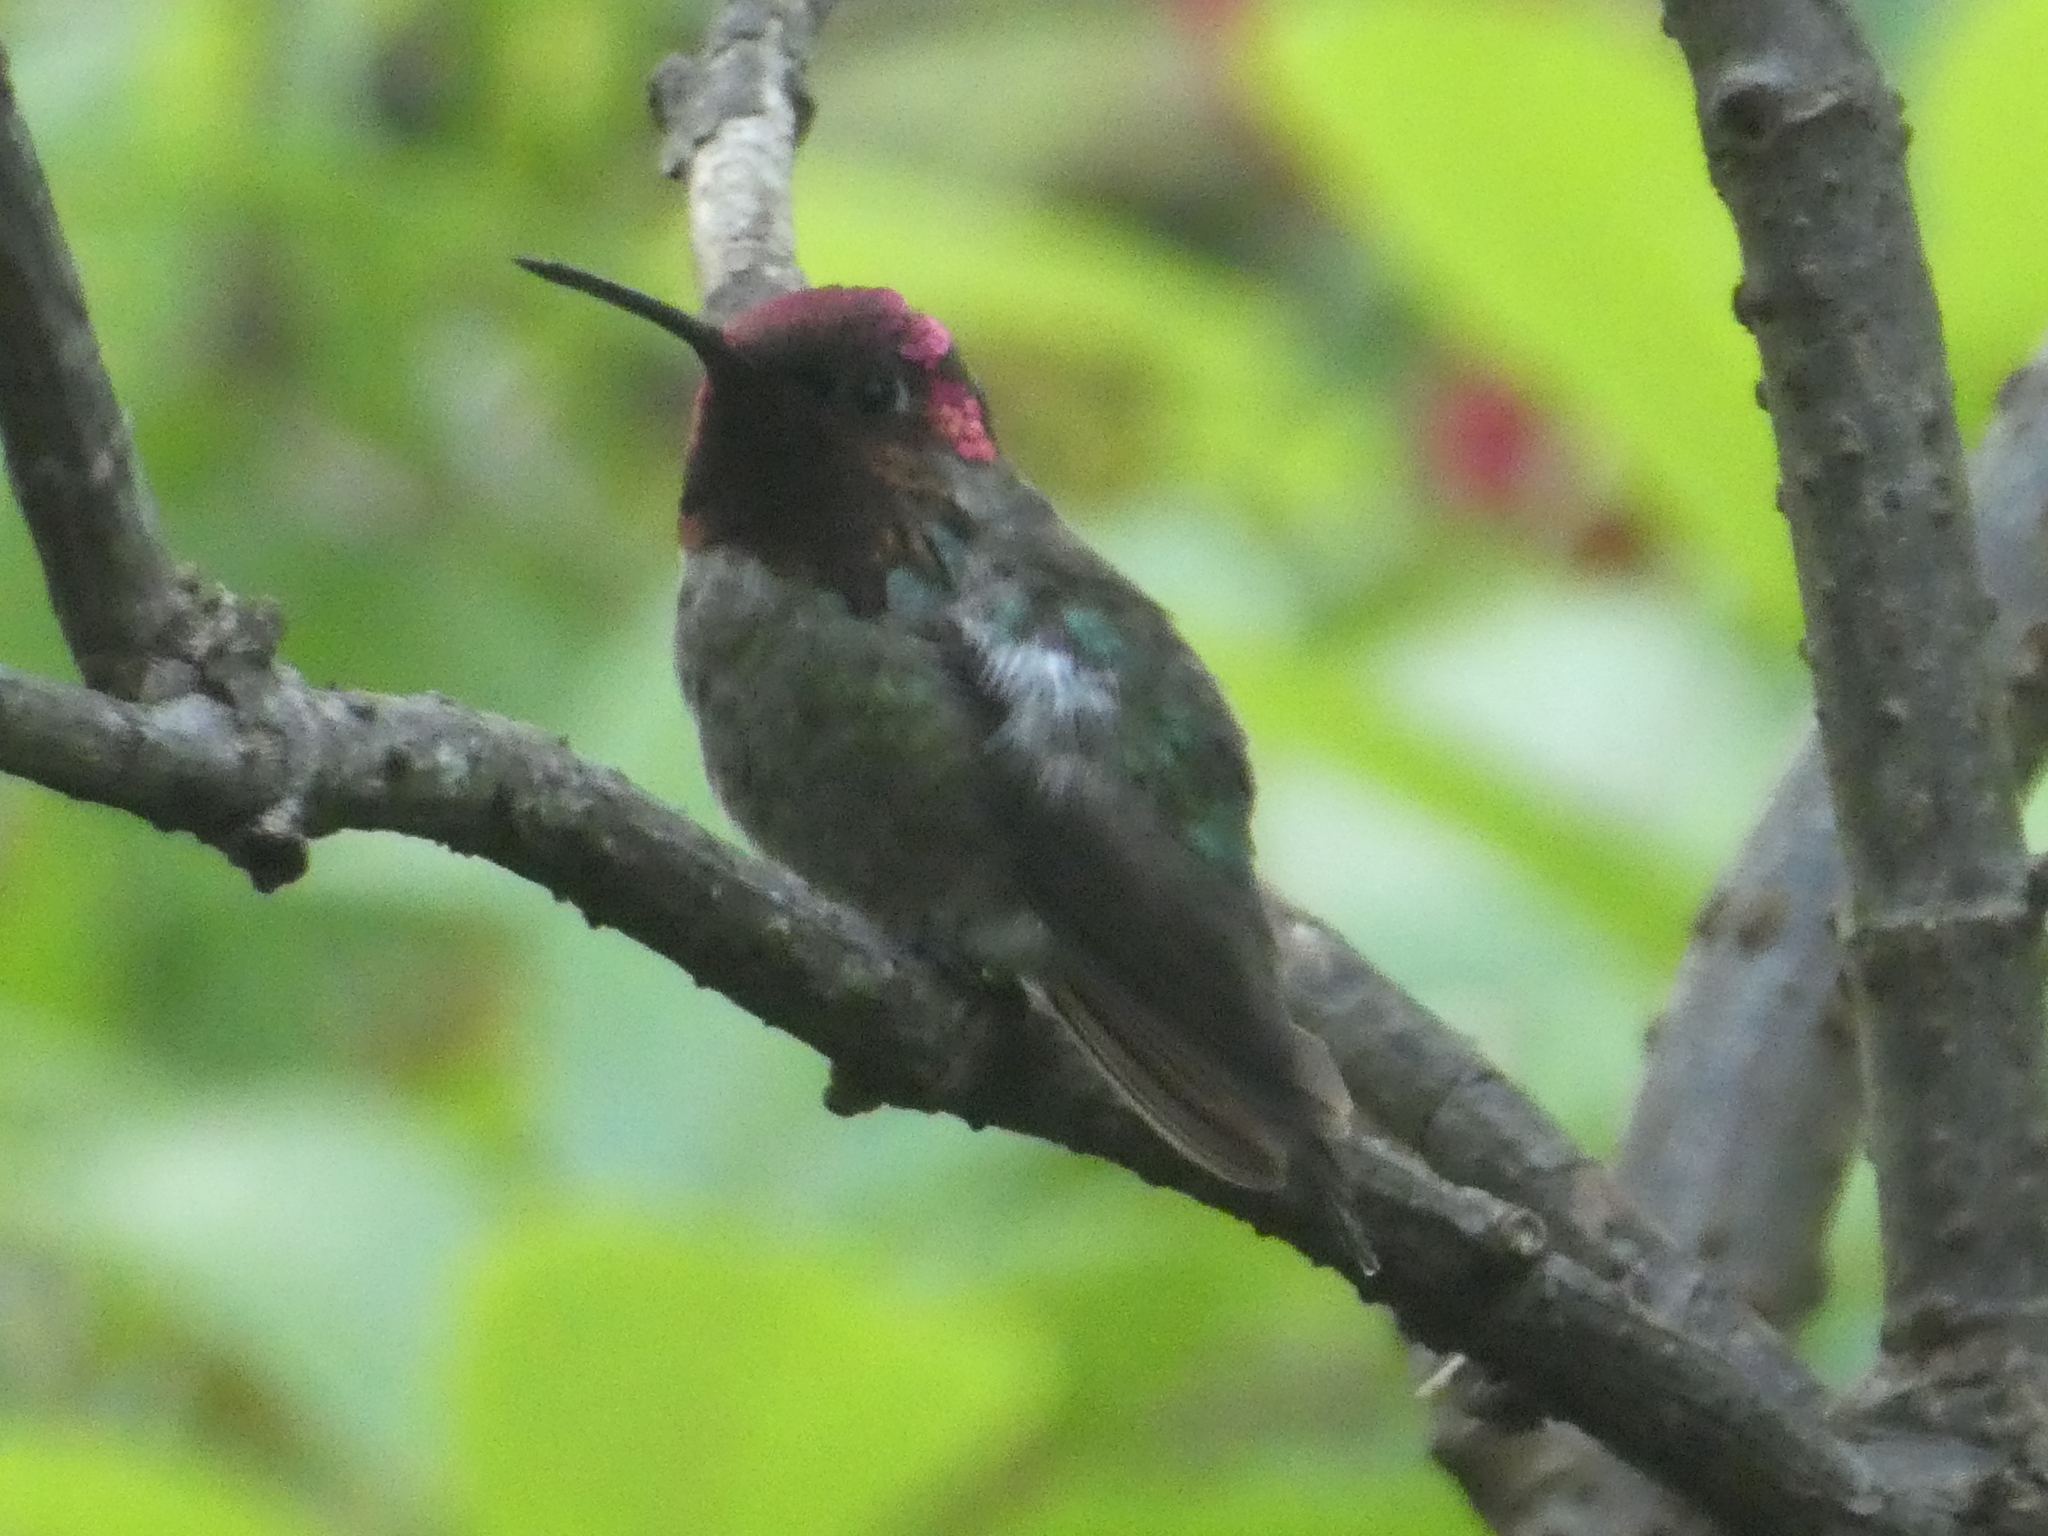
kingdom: Animalia
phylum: Chordata
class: Aves
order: Apodiformes
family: Trochilidae
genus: Calypte
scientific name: Calypte anna
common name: Anna's hummingbird
